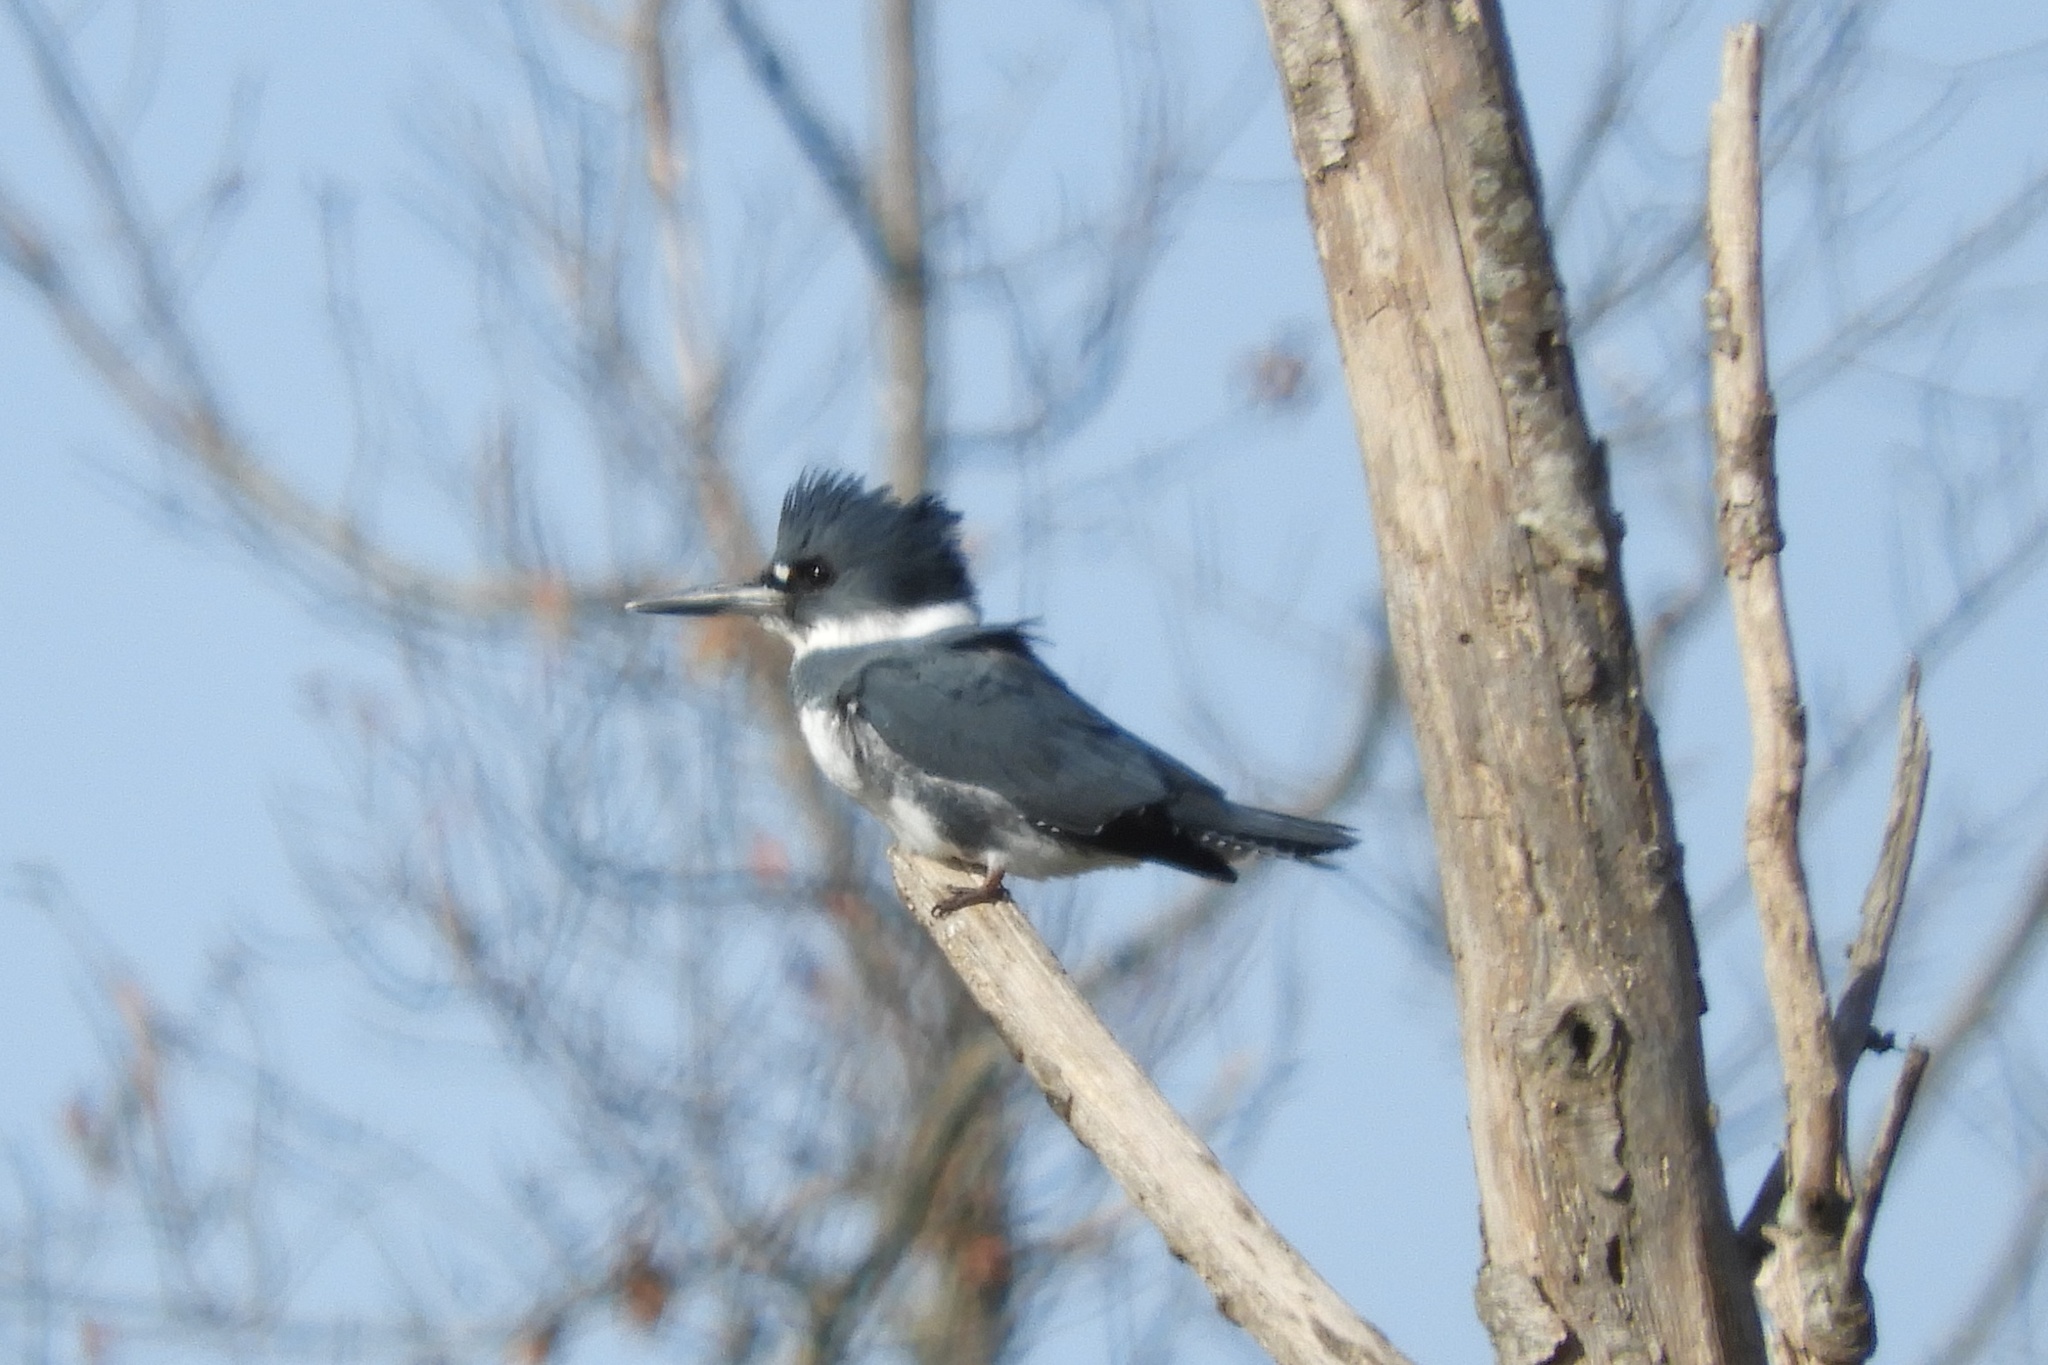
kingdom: Animalia
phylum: Chordata
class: Aves
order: Coraciiformes
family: Alcedinidae
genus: Megaceryle
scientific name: Megaceryle alcyon
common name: Belted kingfisher
